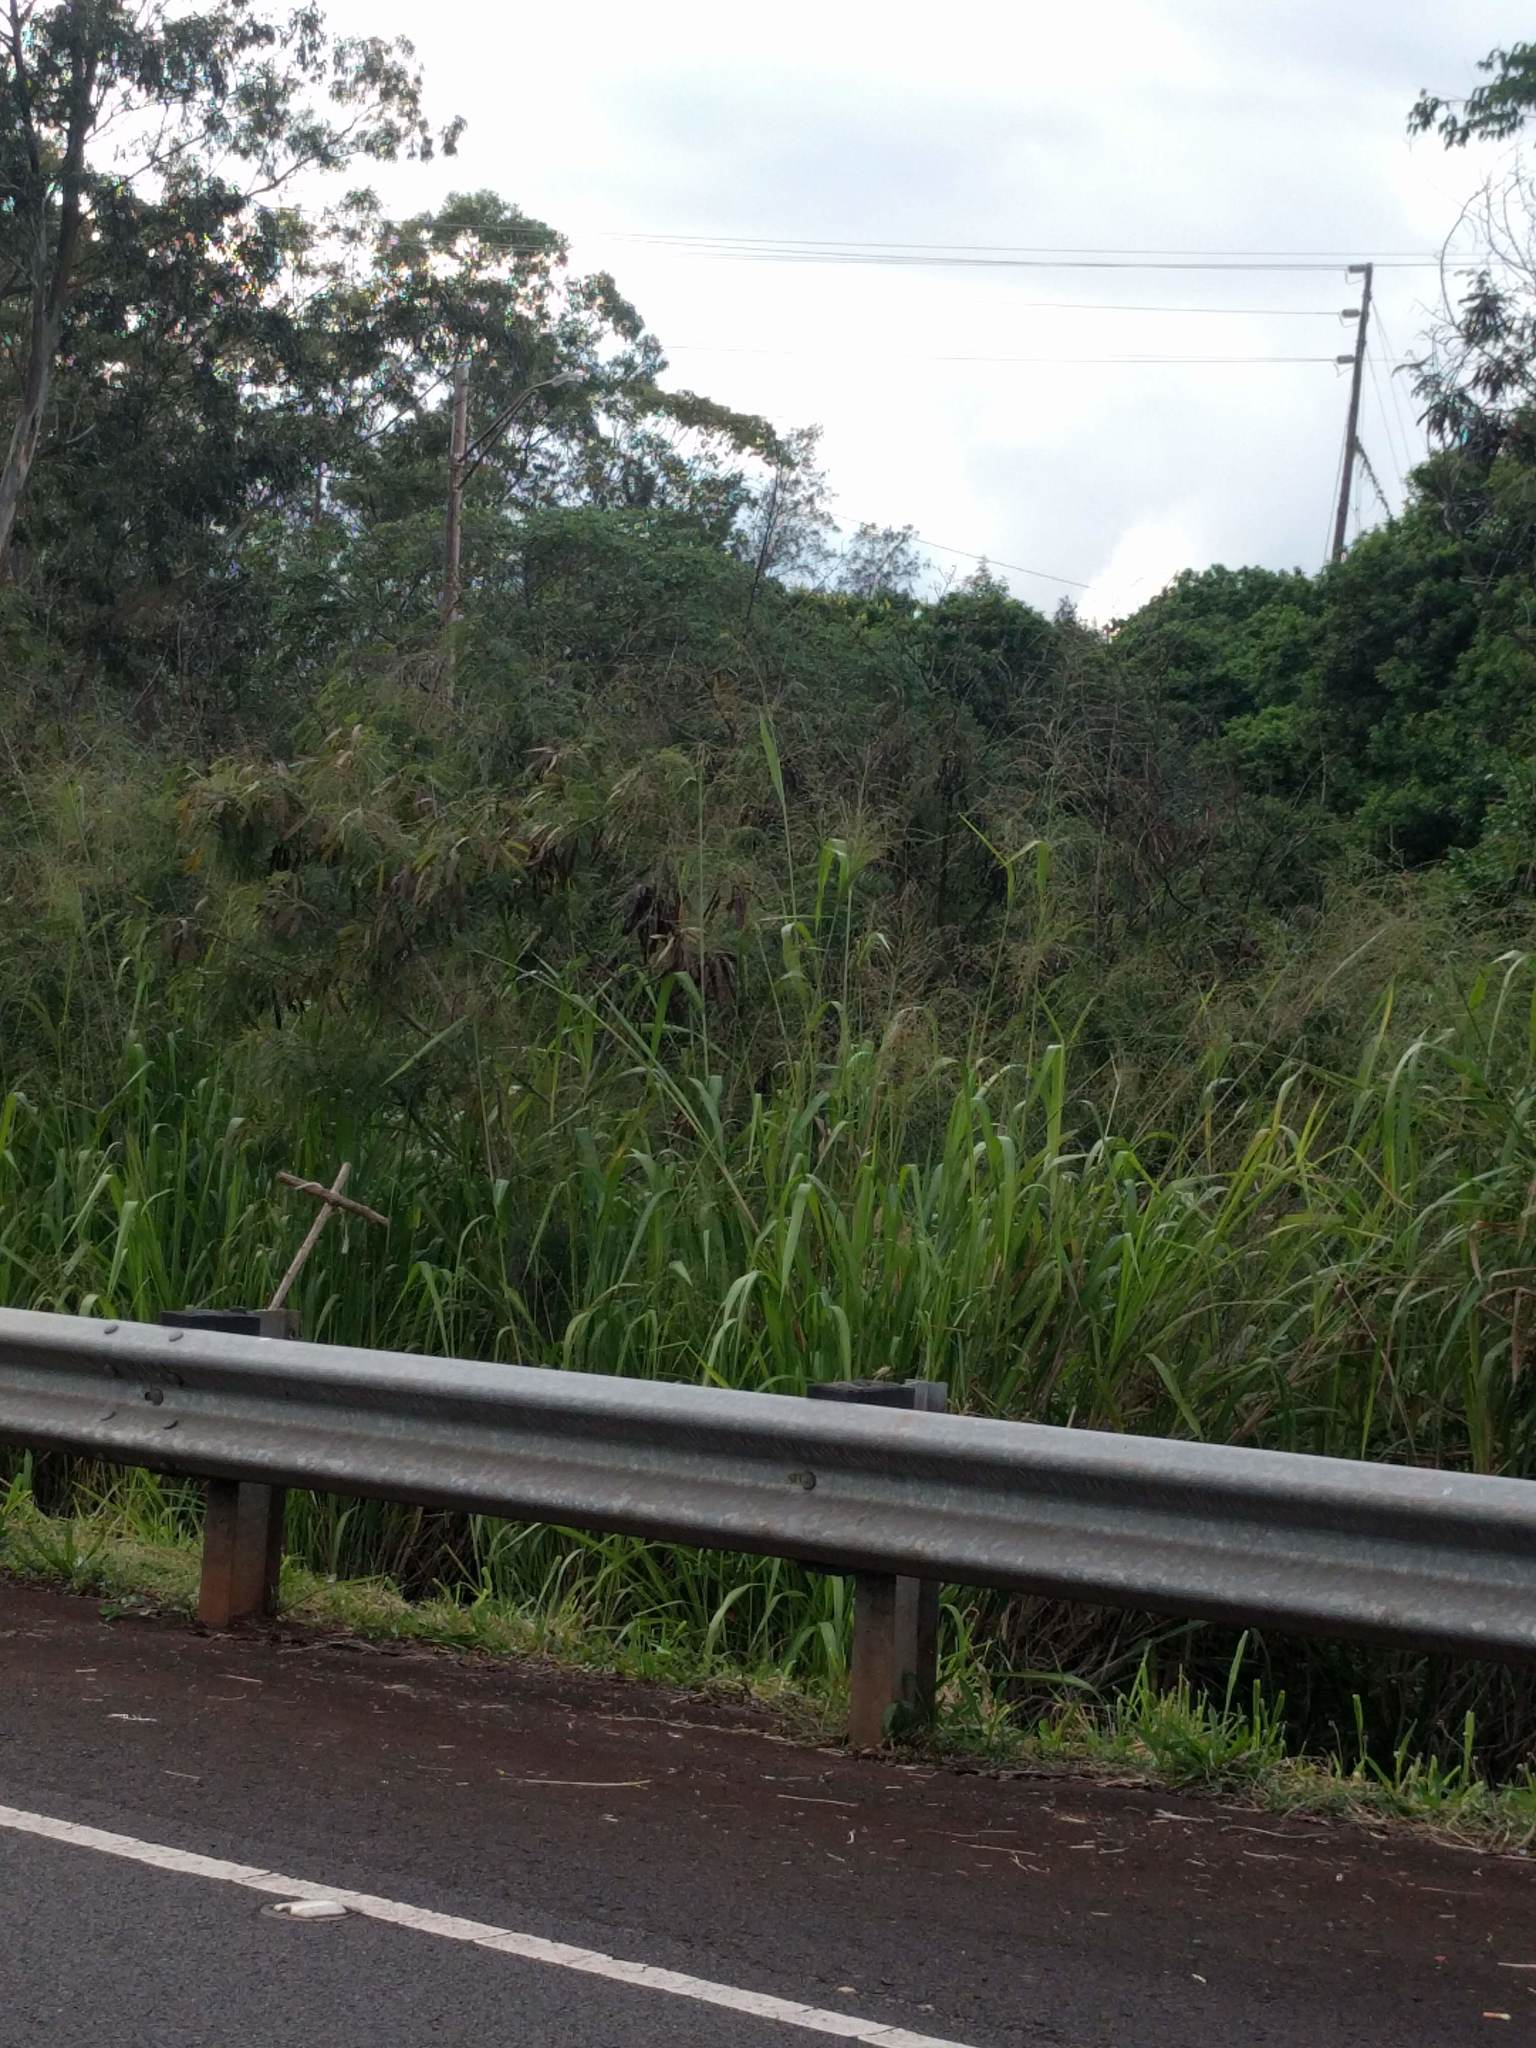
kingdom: Plantae
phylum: Tracheophyta
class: Magnoliopsida
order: Fabales
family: Fabaceae
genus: Leucaena
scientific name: Leucaena leucocephala
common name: White leadtree
